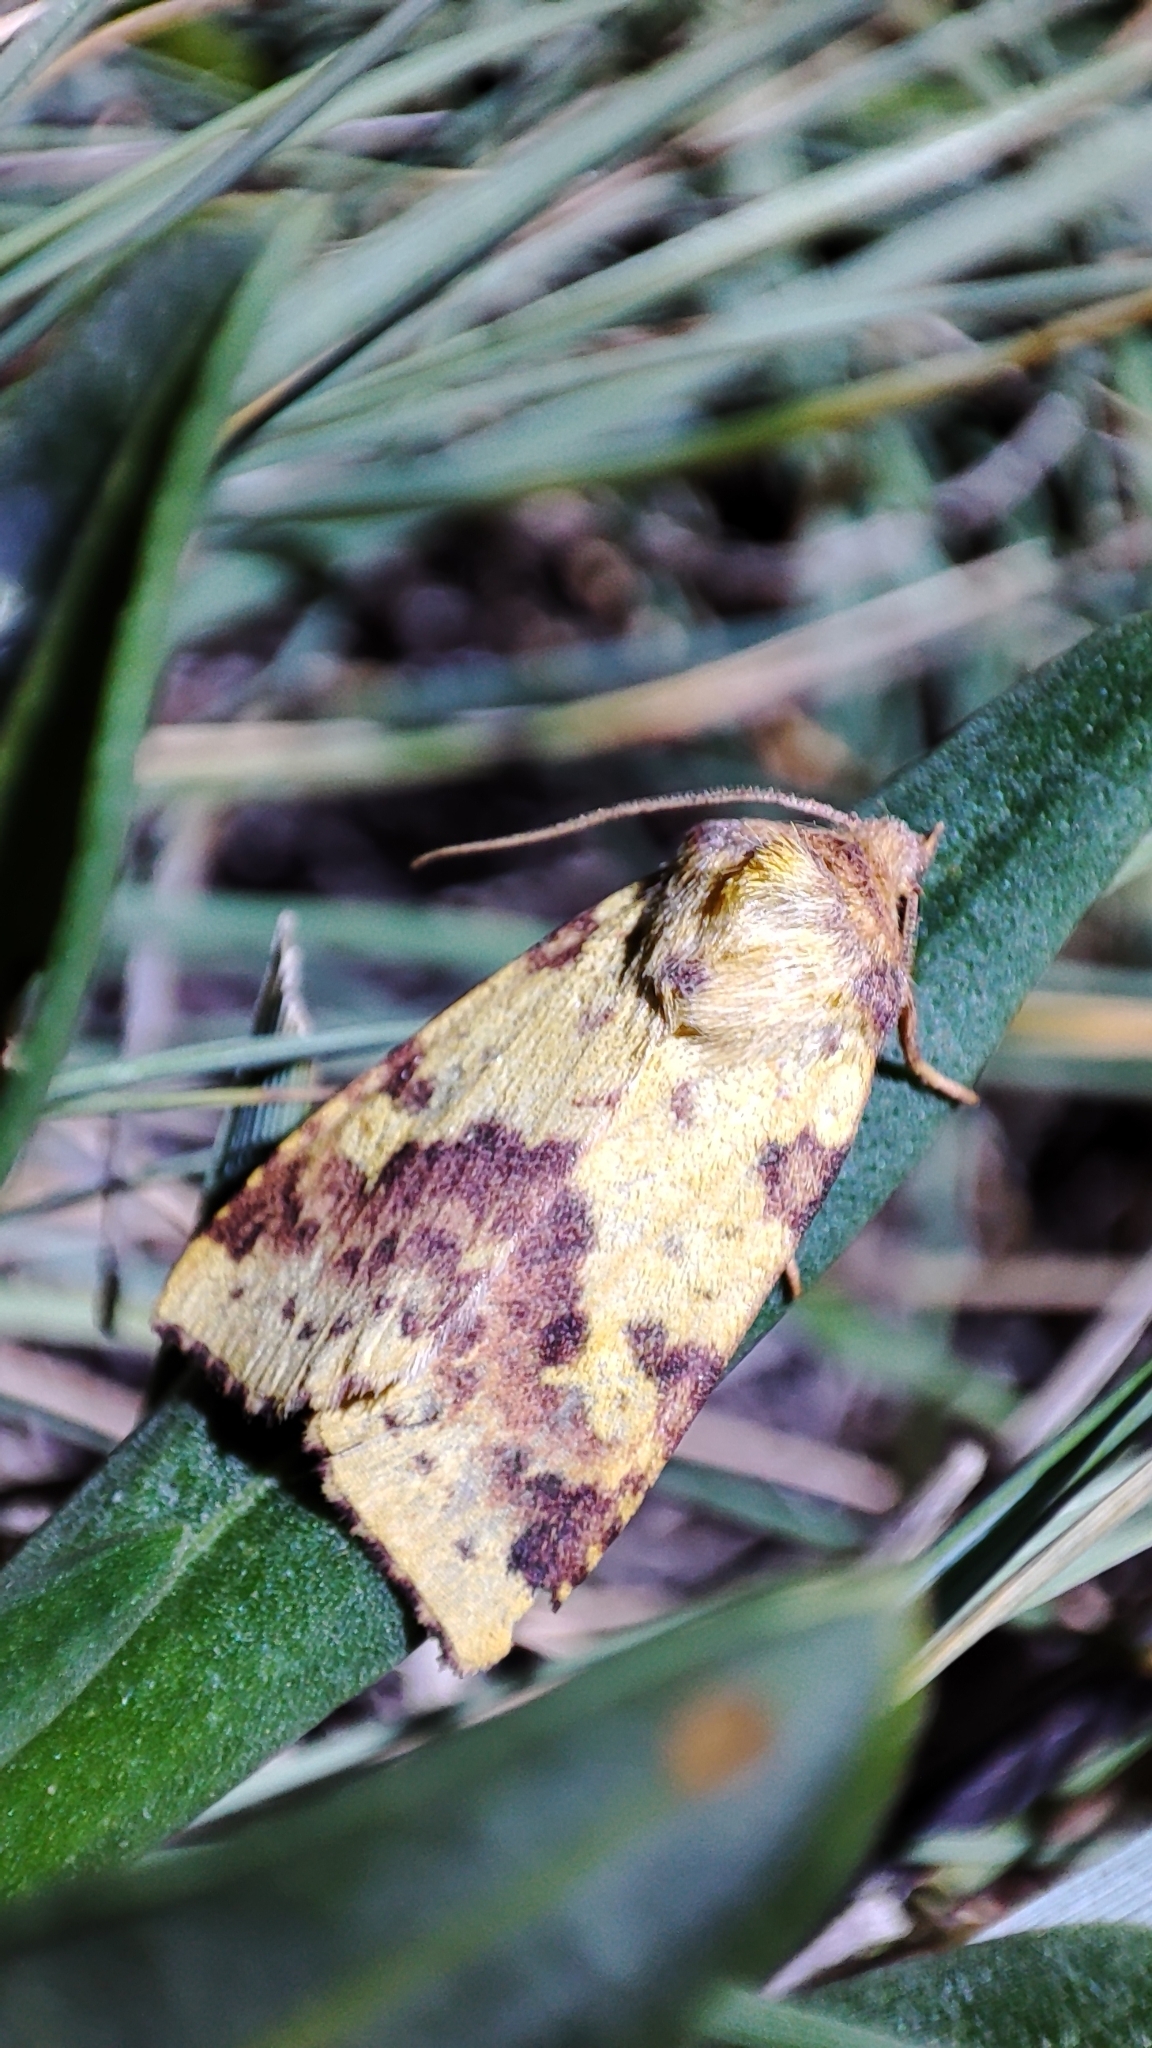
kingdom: Animalia
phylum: Arthropoda
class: Insecta
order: Lepidoptera
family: Noctuidae
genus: Xanthia
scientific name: Xanthia togata
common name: Pink-barred sallow
